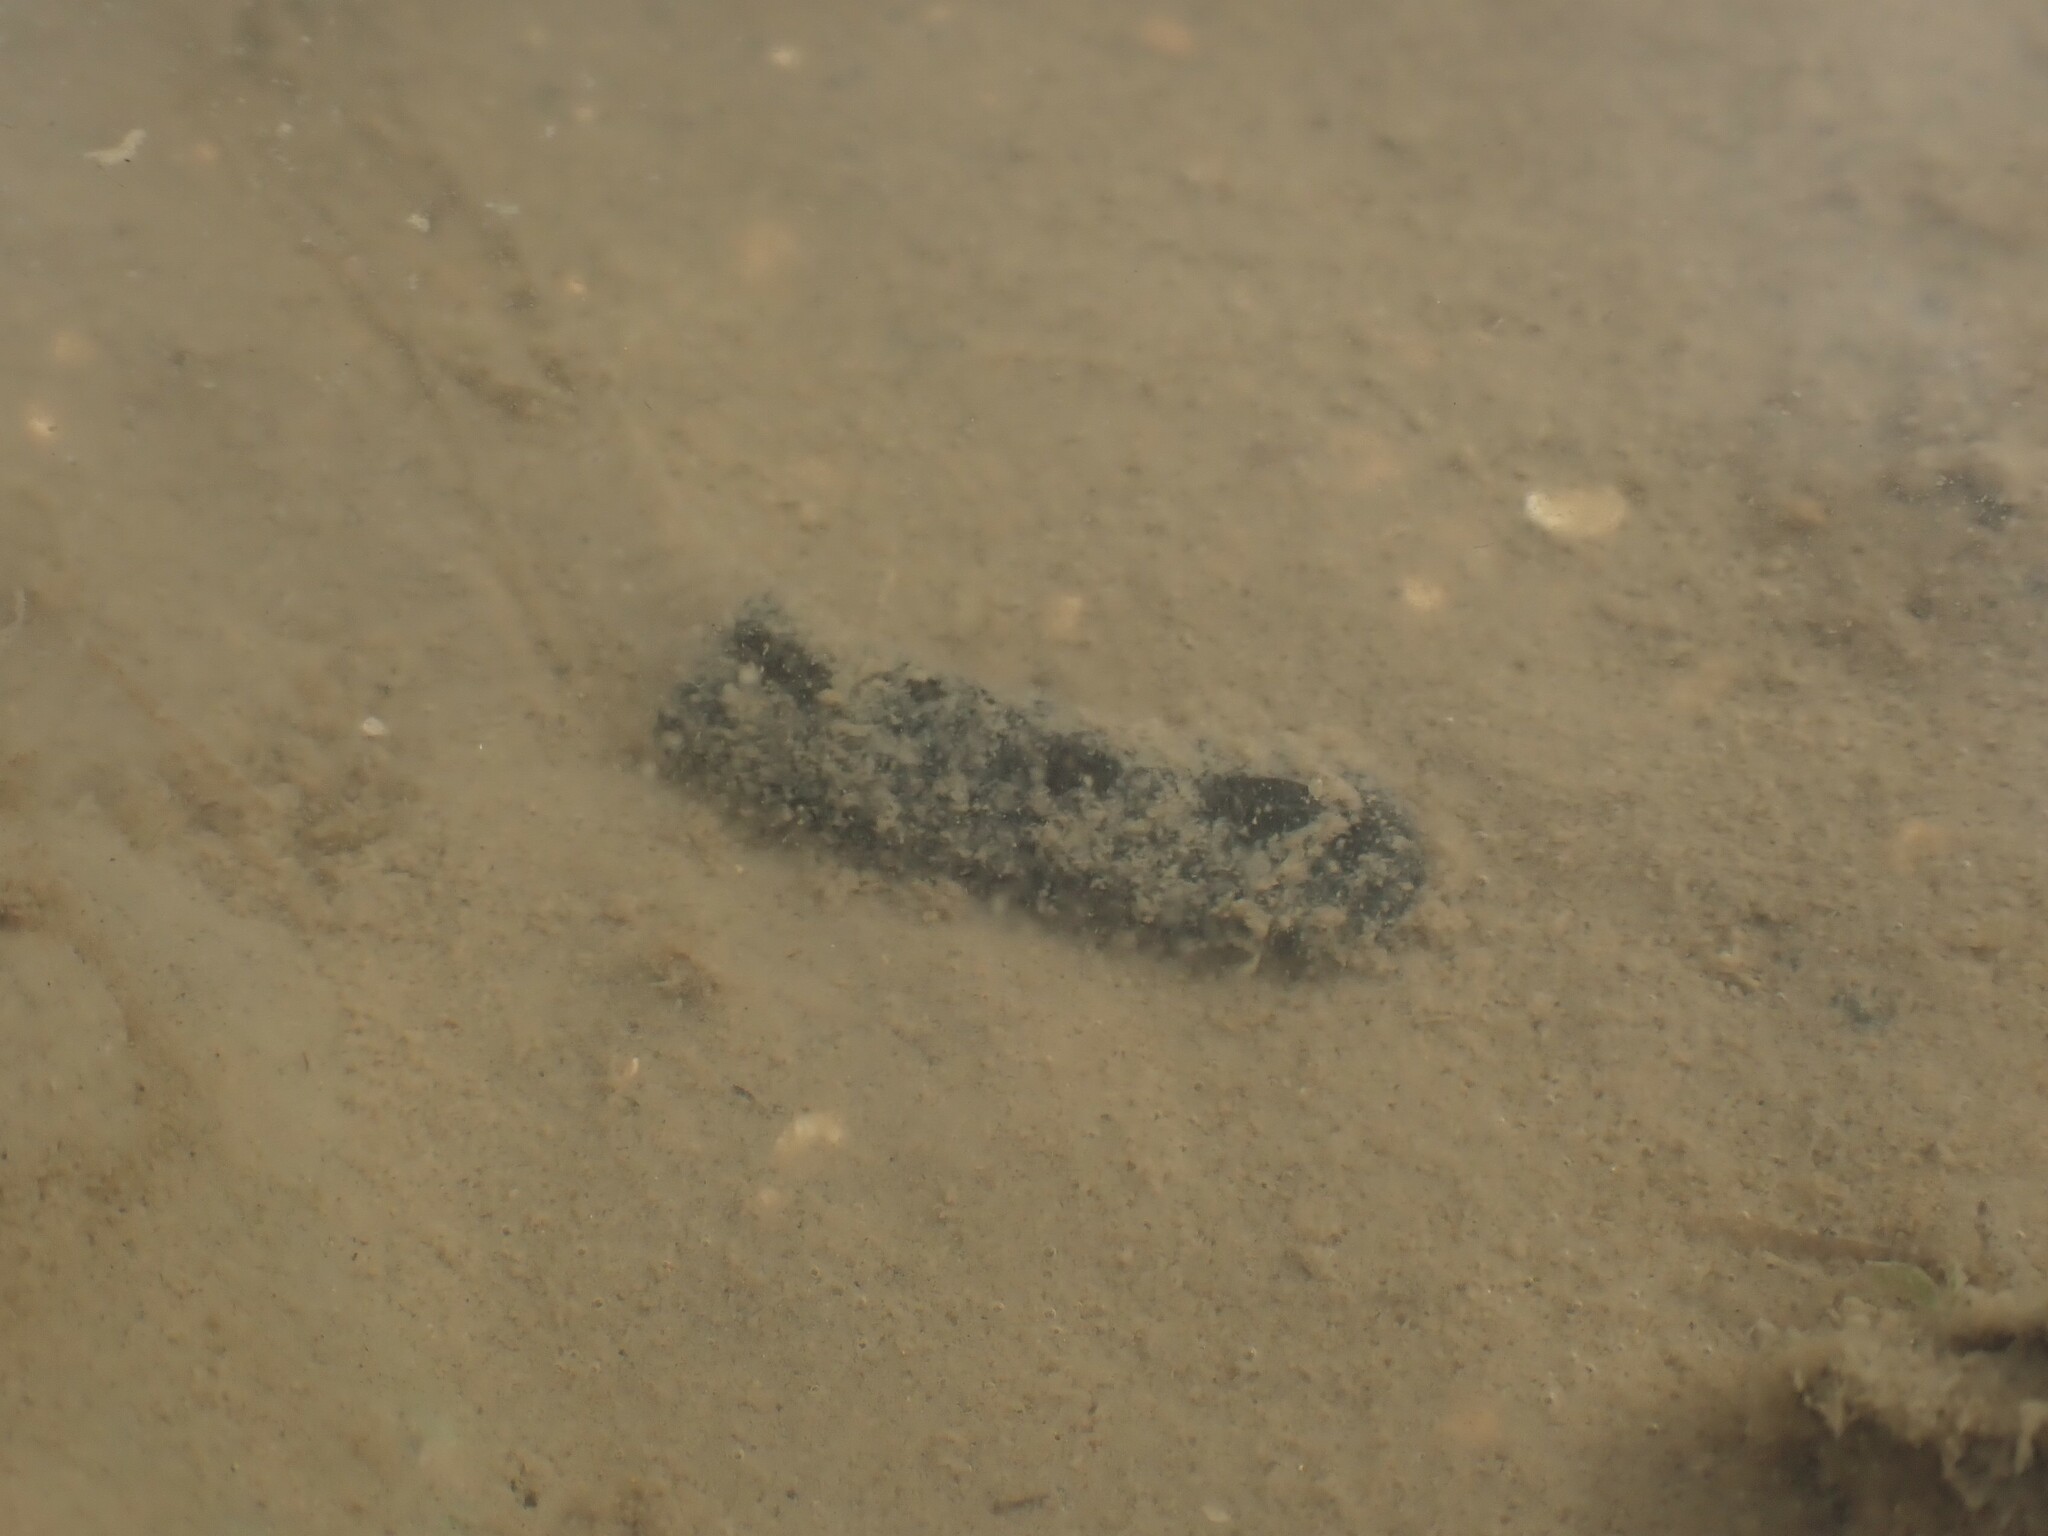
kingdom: Animalia
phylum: Mollusca
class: Gastropoda
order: Cephalaspidea
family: Aglajidae
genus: Melanochlamys
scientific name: Melanochlamys cylindrica
